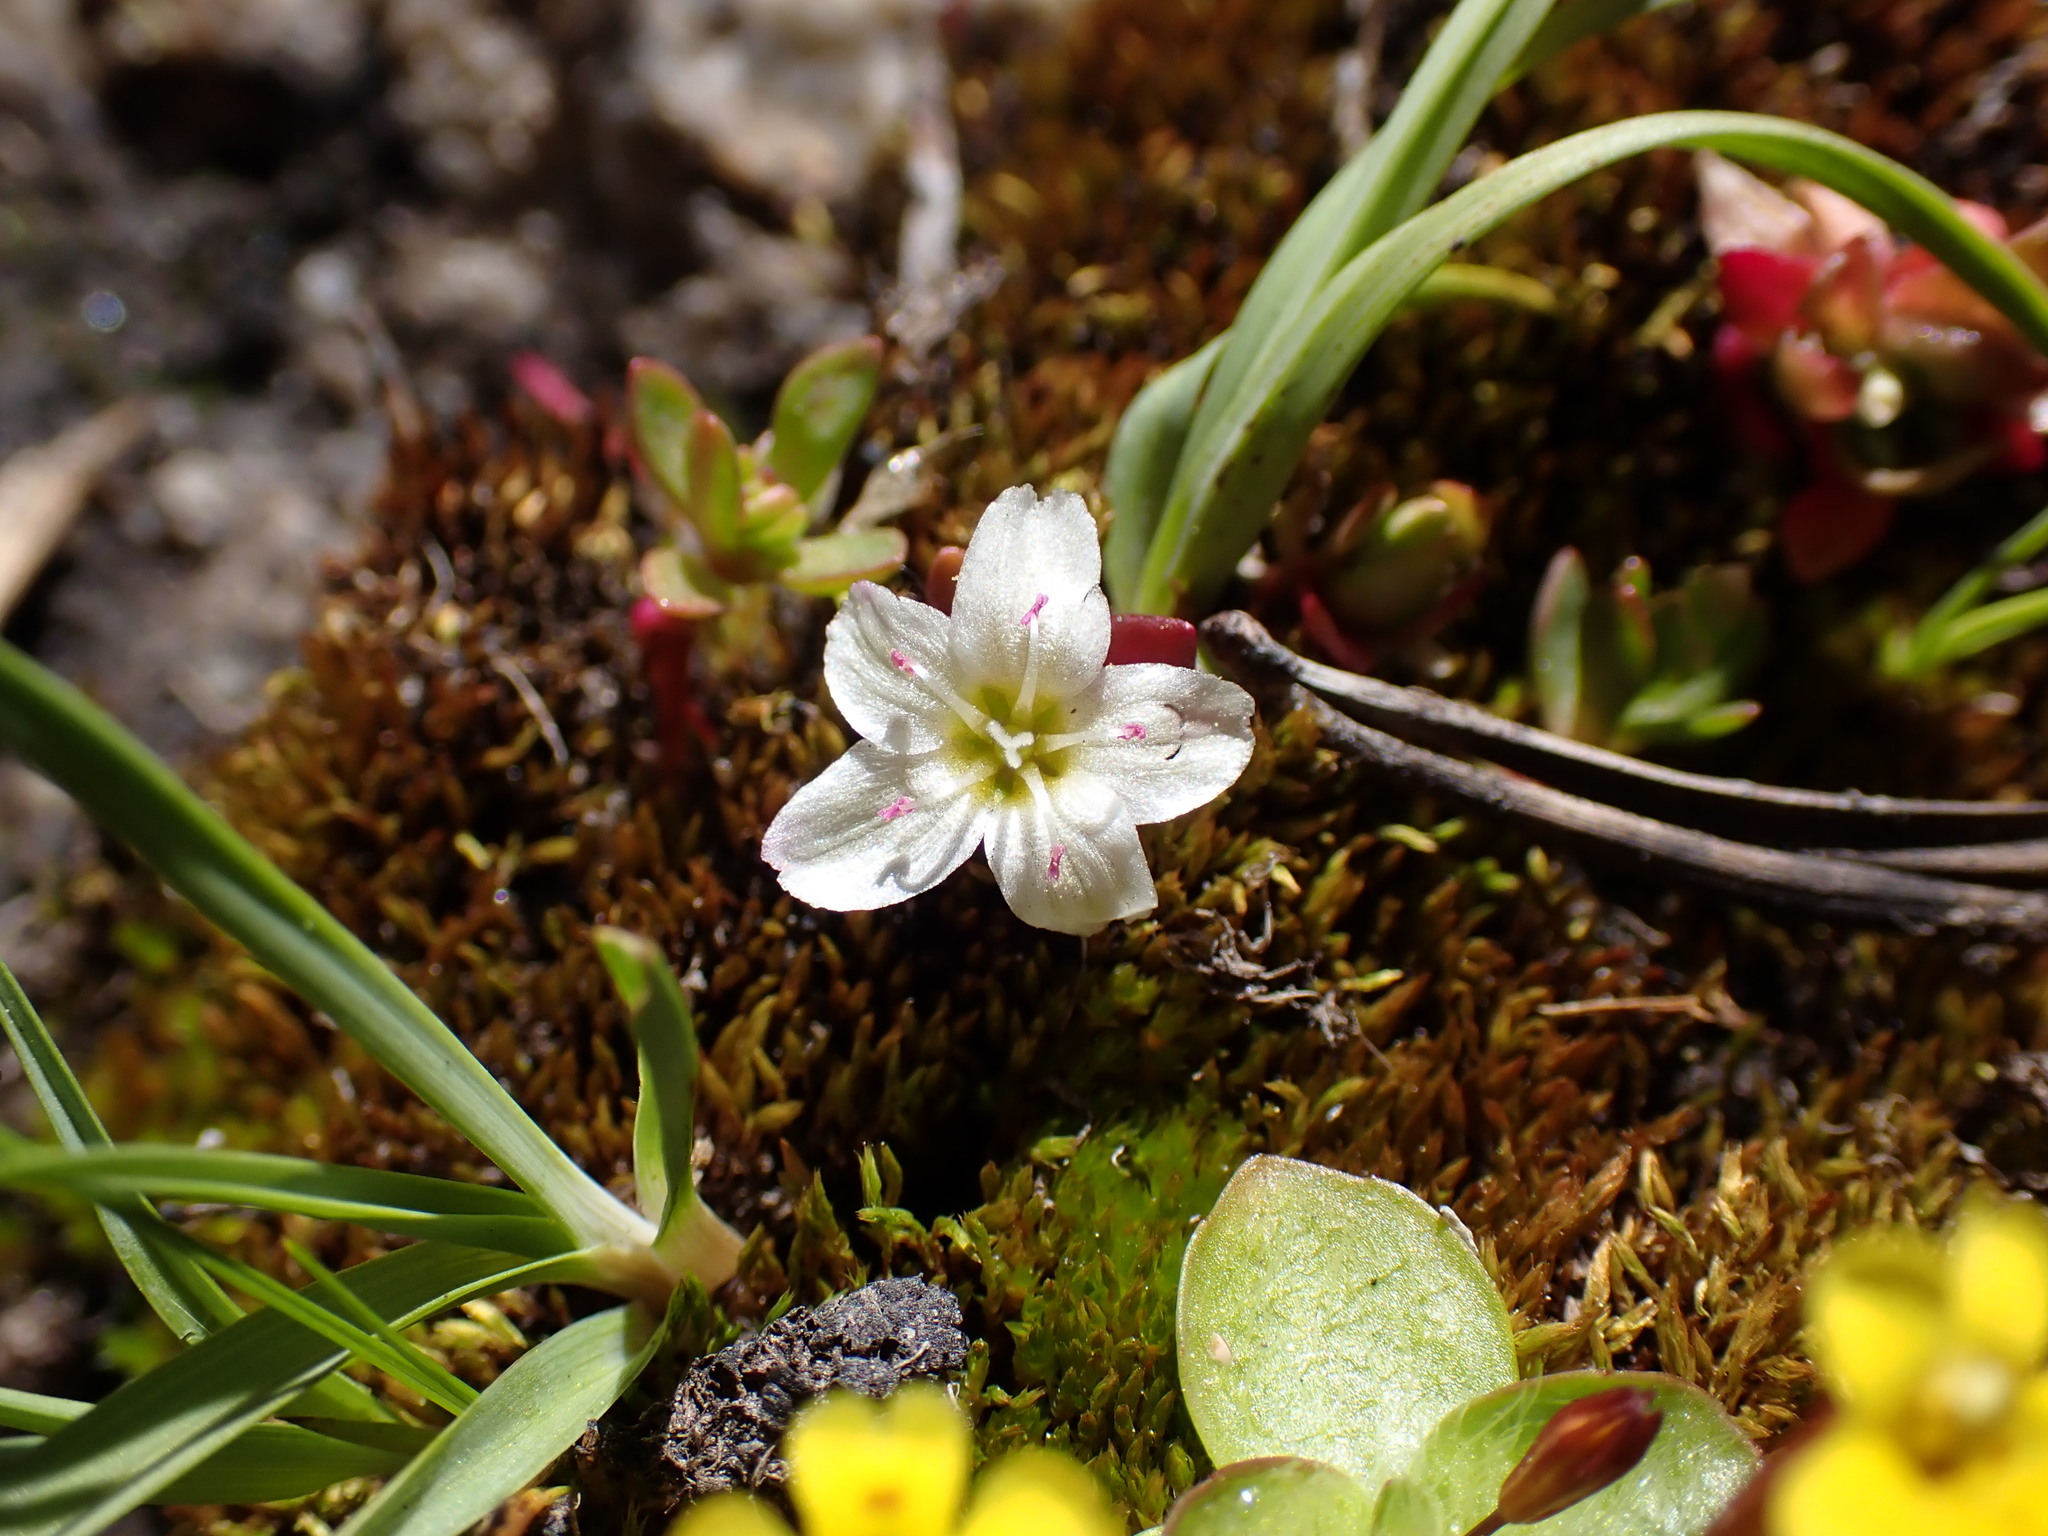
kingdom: Plantae
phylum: Tracheophyta
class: Magnoliopsida
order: Caryophyllales
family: Montiaceae
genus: Montia
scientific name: Montia chamissoi
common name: Chamisso's candyflower
